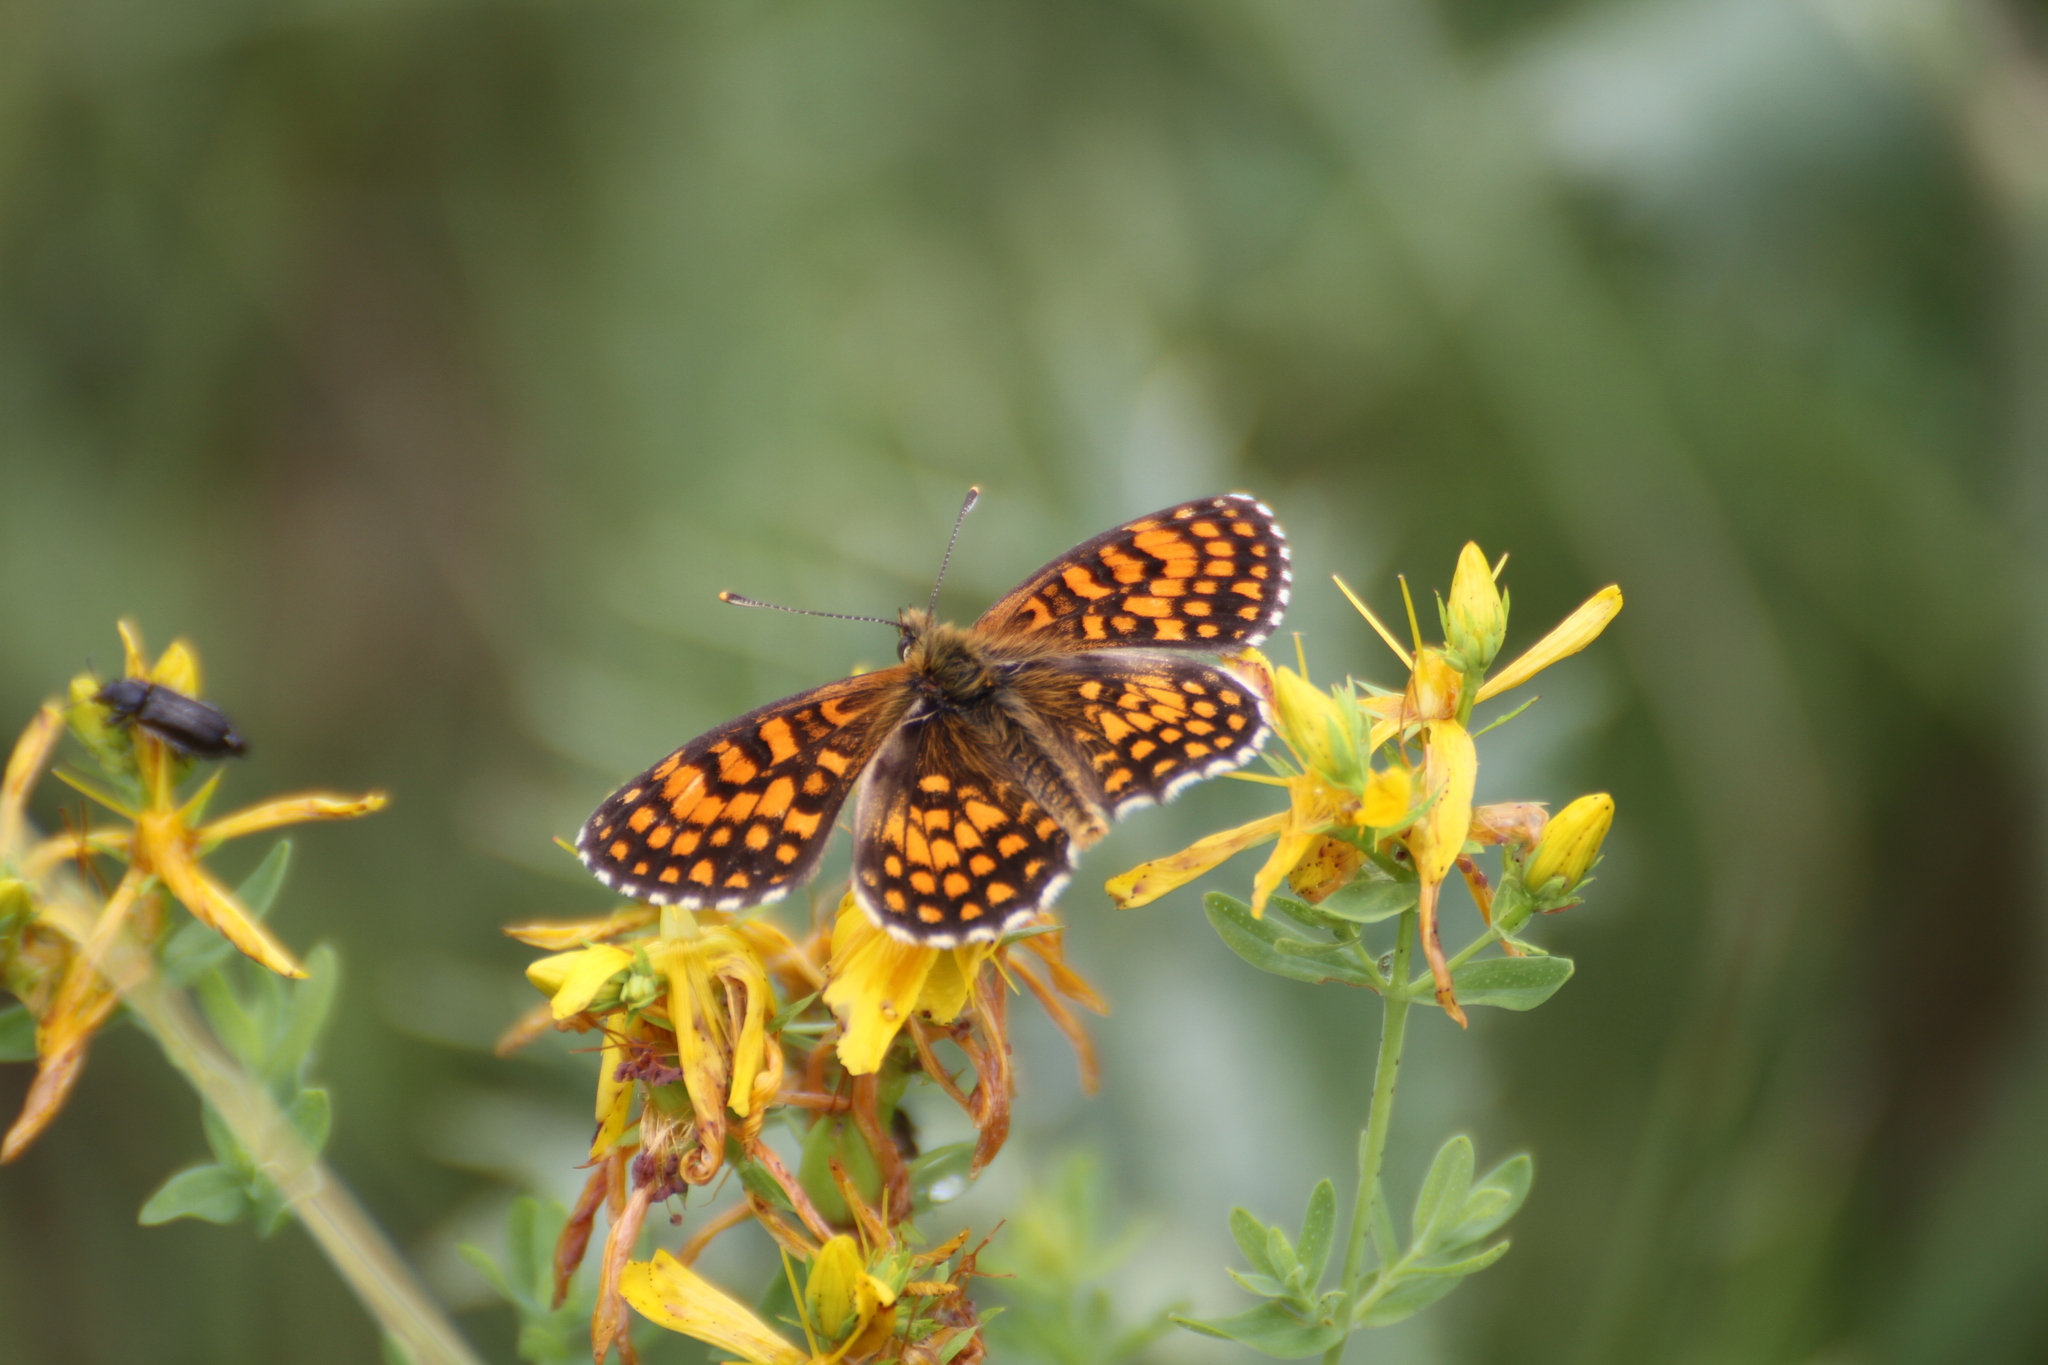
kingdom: Animalia
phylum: Arthropoda
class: Insecta
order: Lepidoptera
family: Nymphalidae
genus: Mellicta
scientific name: Mellicta athalia
